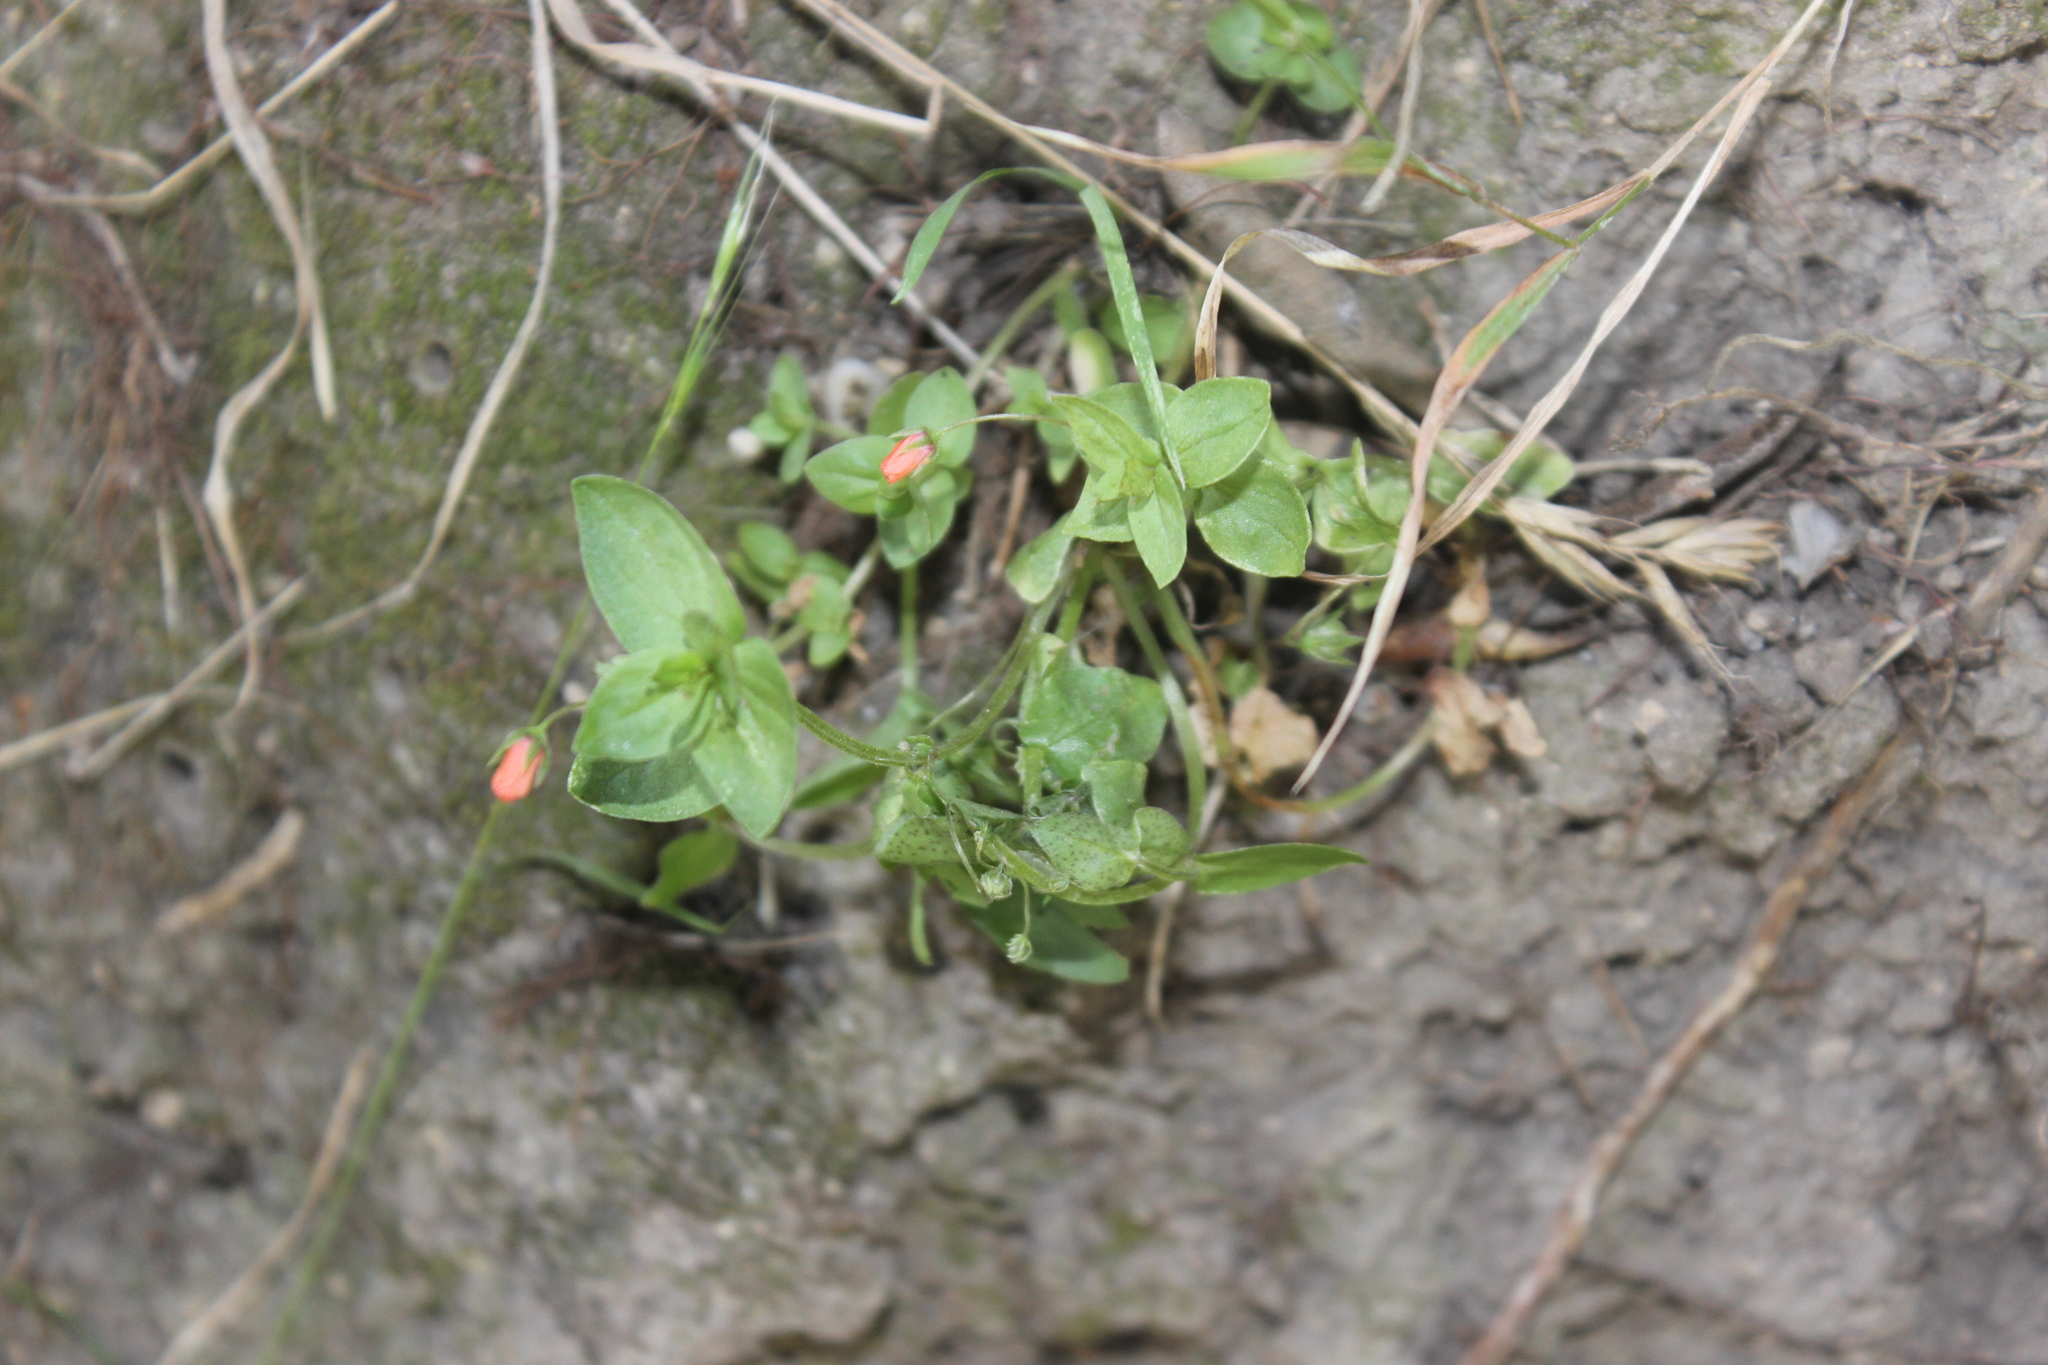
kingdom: Plantae
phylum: Tracheophyta
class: Magnoliopsida
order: Ericales
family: Primulaceae
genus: Lysimachia
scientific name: Lysimachia arvensis
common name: Scarlet pimpernel
